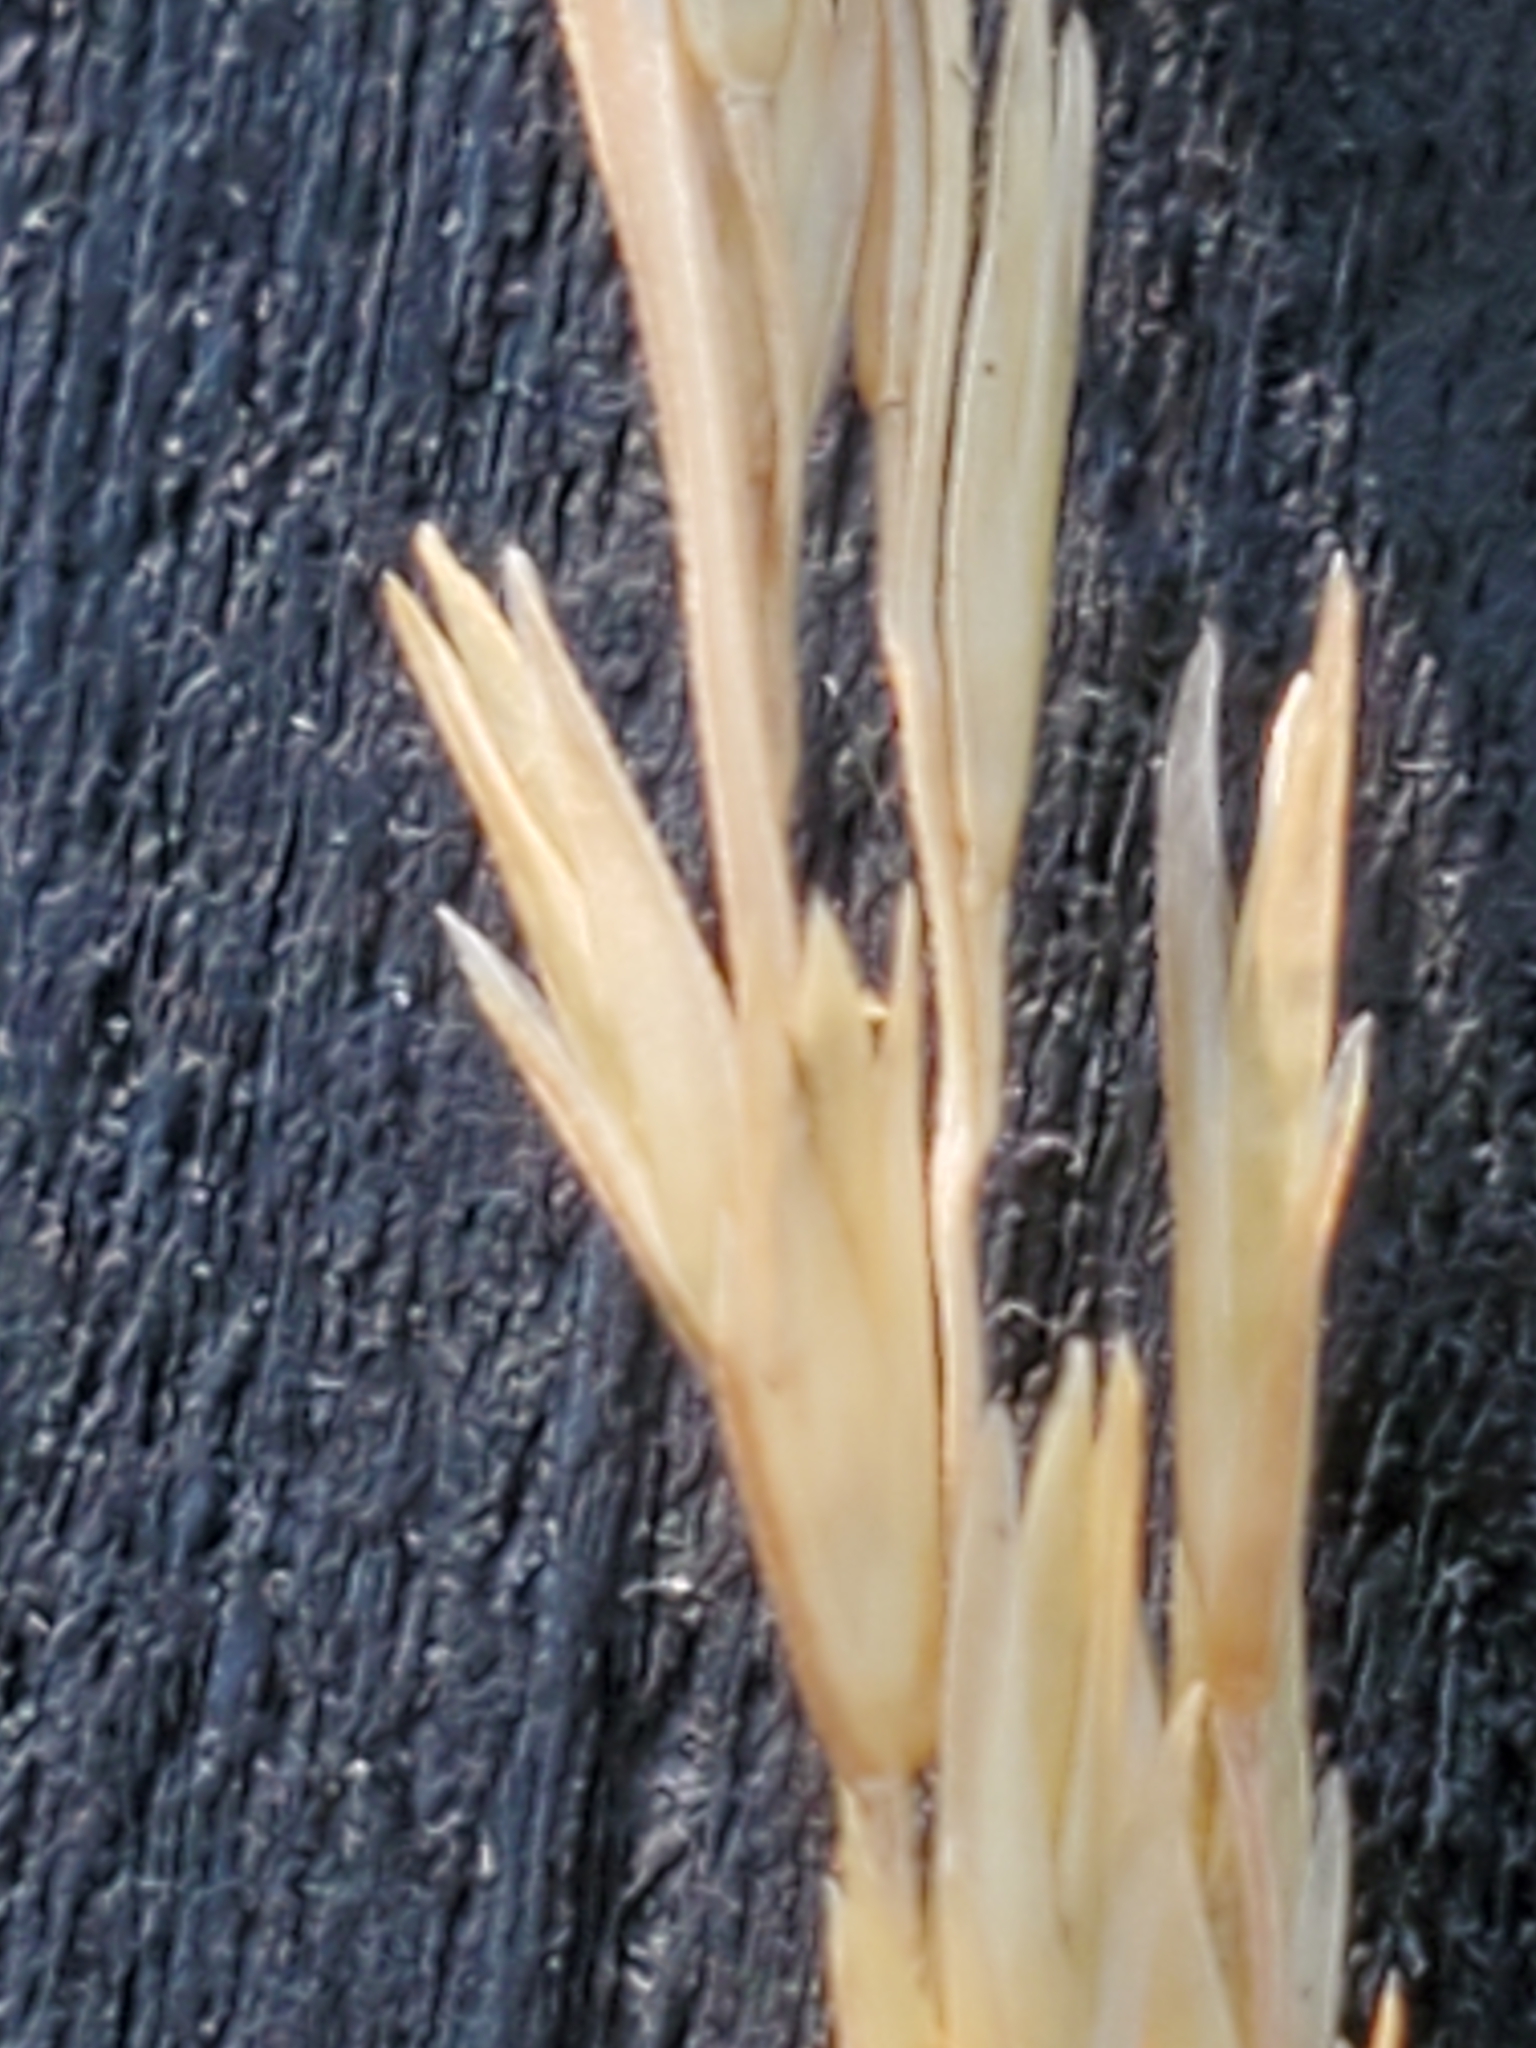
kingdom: Plantae
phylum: Tracheophyta
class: Liliopsida
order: Poales
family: Poaceae
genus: Sporobolus
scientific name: Sporobolus compositus
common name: Rough dropseed
